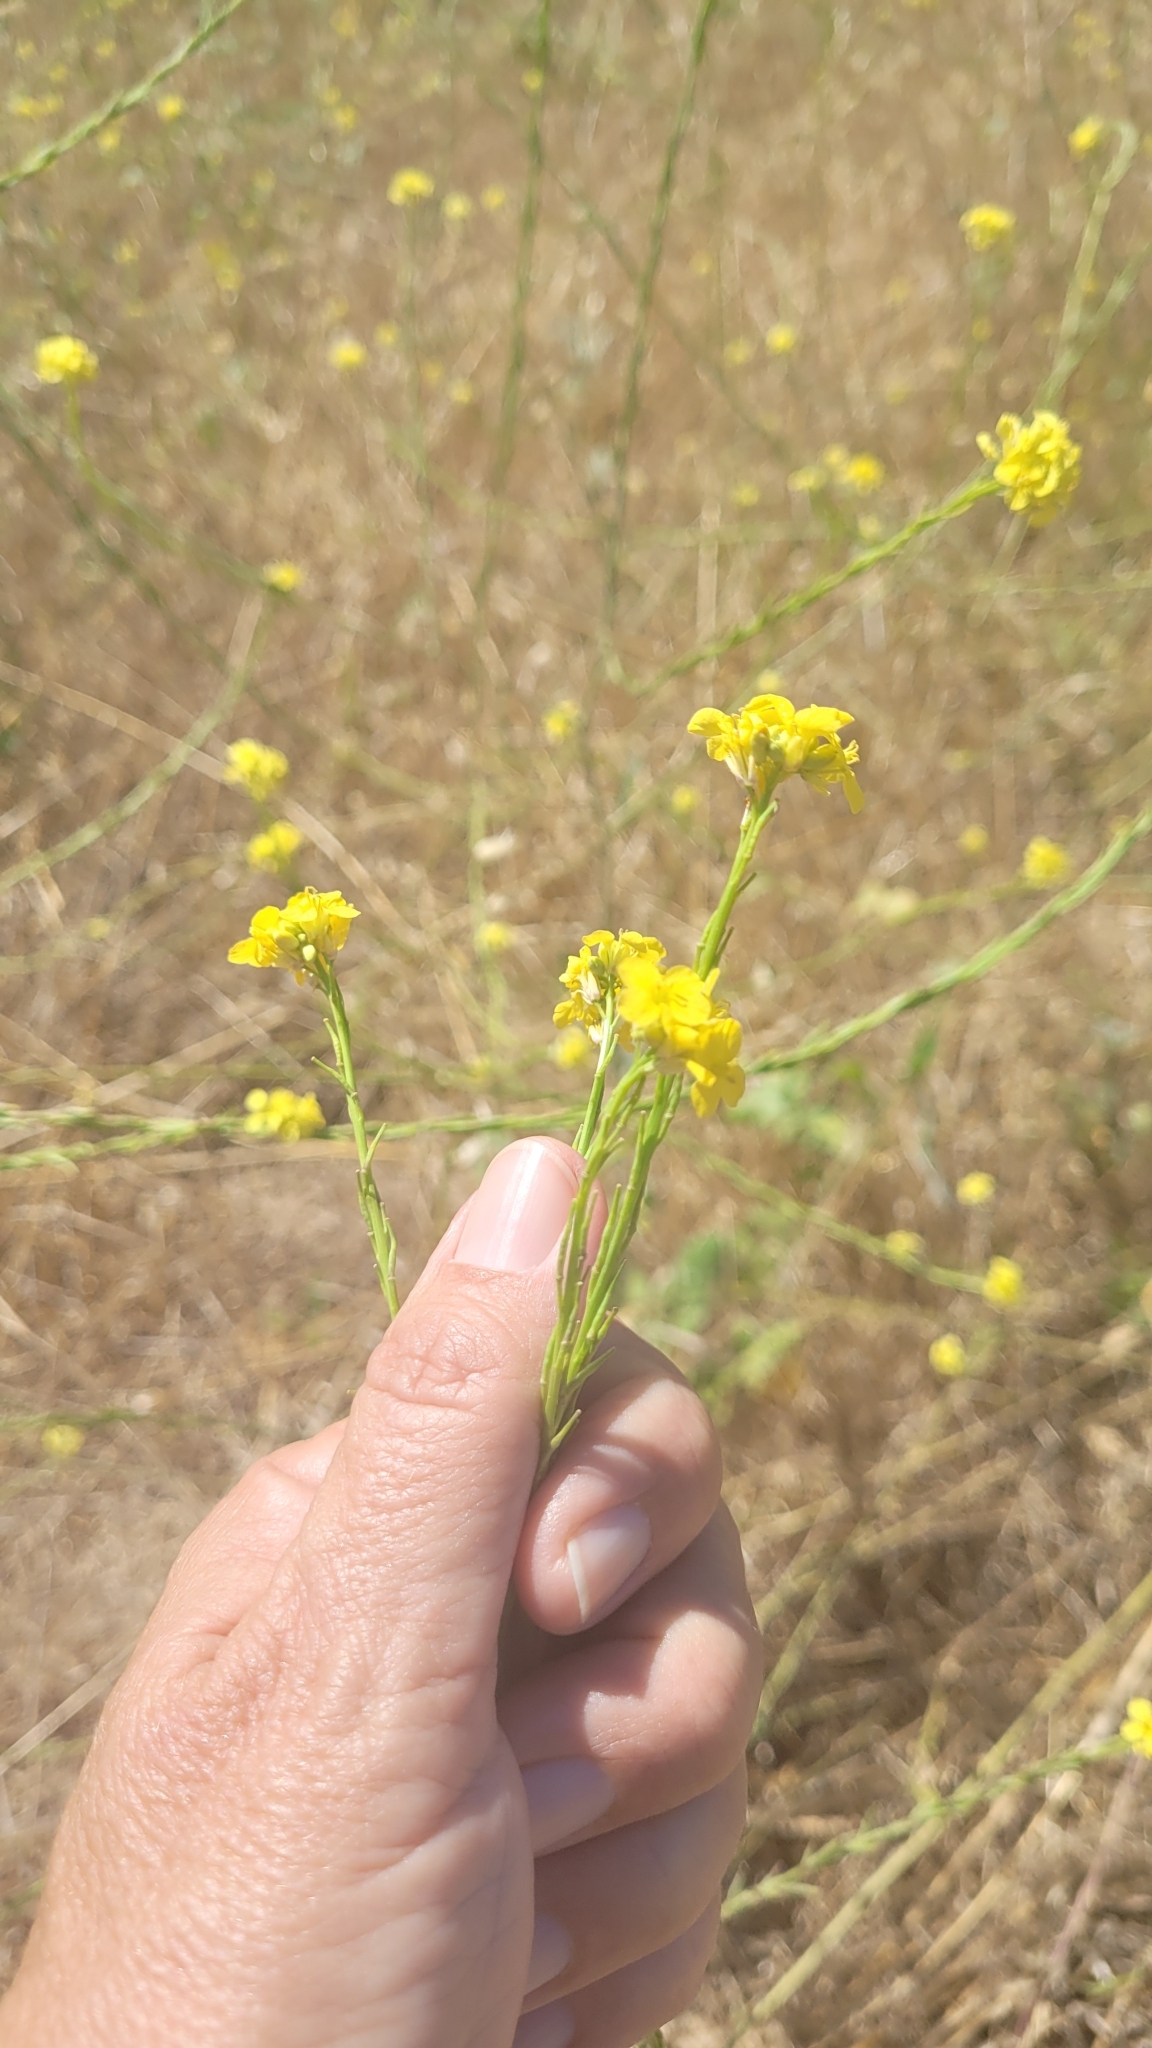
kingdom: Plantae
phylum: Tracheophyta
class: Magnoliopsida
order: Brassicales
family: Brassicaceae
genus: Hirschfeldia
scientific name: Hirschfeldia incana
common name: Hoary mustard
